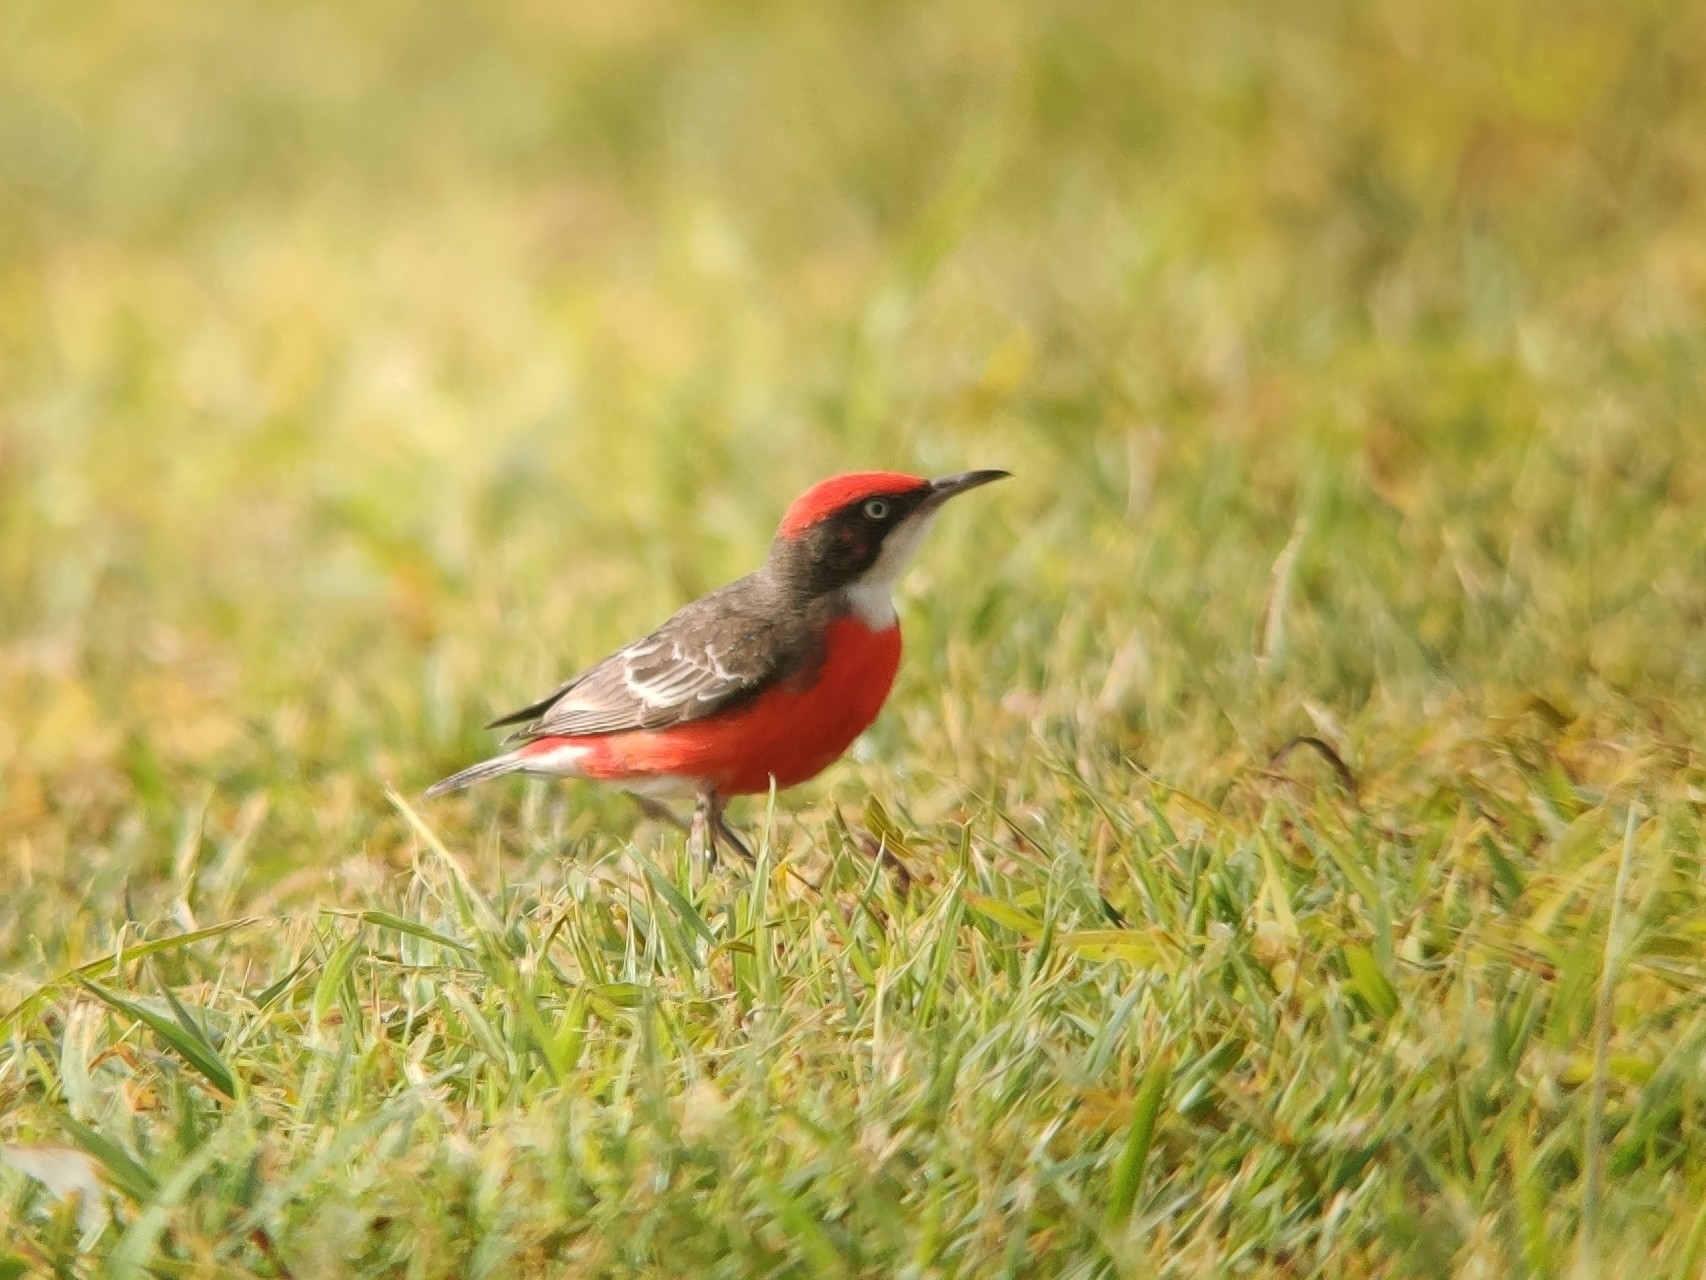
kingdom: Animalia
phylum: Chordata
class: Aves
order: Passeriformes
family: Meliphagidae
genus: Epthianura
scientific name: Epthianura tricolor
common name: Crimson chat
